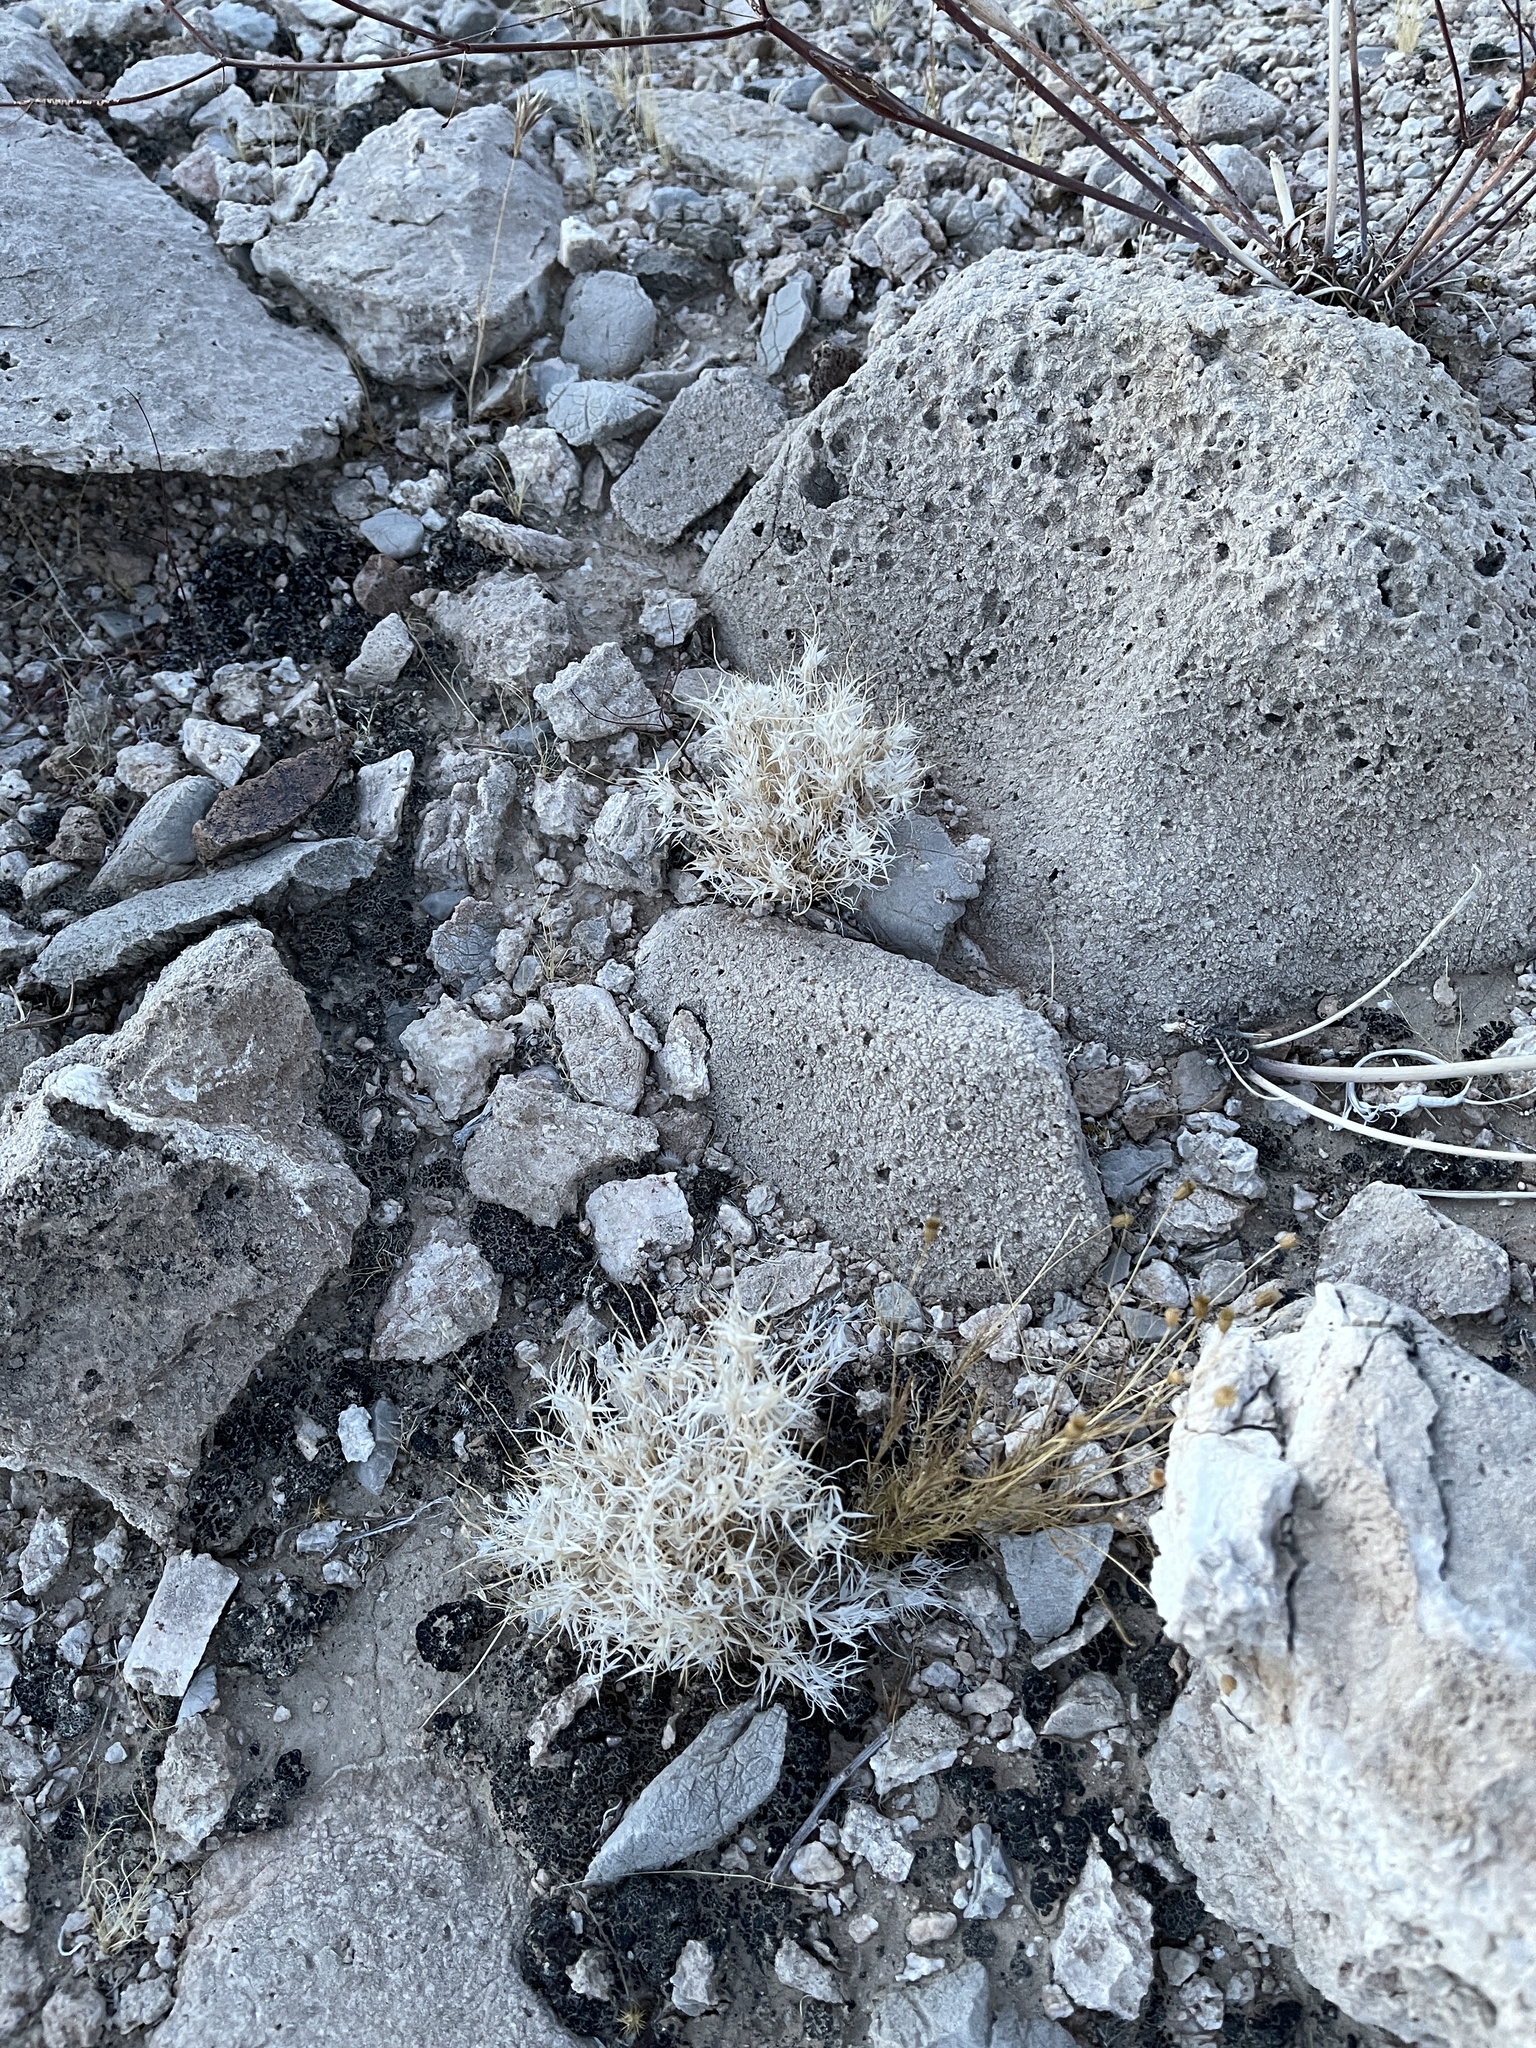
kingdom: Plantae
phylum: Tracheophyta
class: Liliopsida
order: Poales
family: Poaceae
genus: Dasyochloa
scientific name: Dasyochloa pulchella
